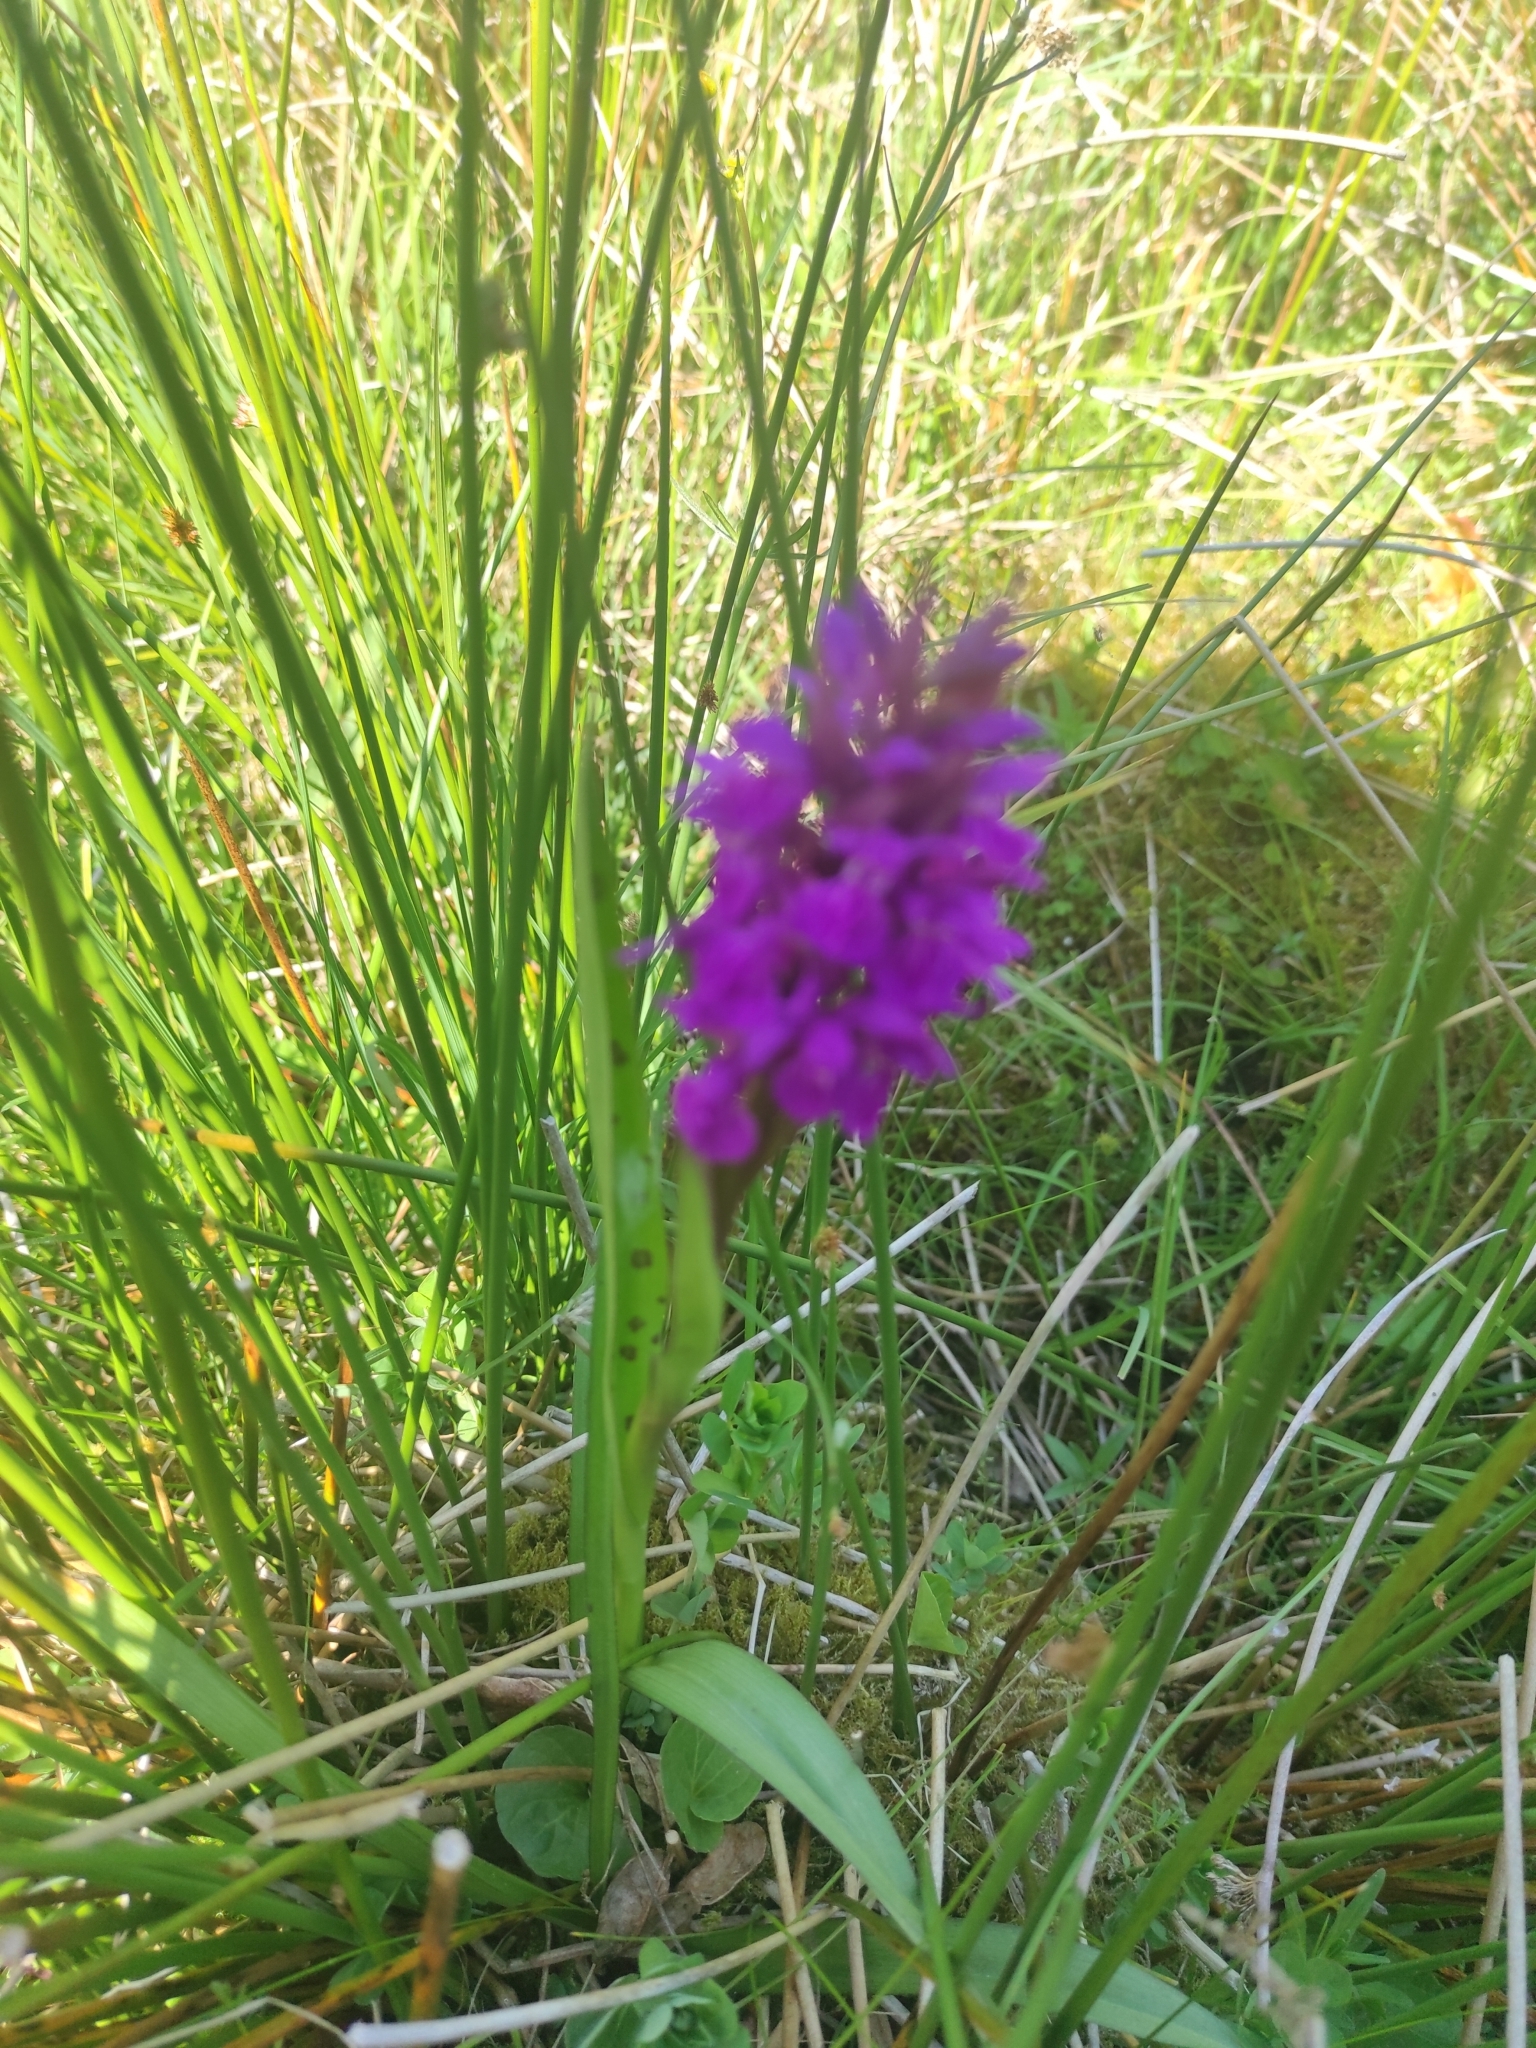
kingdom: Plantae
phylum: Tracheophyta
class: Liliopsida
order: Asparagales
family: Orchidaceae
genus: Dactylorhiza
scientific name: Dactylorhiza majalis
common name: Marsh orchid
